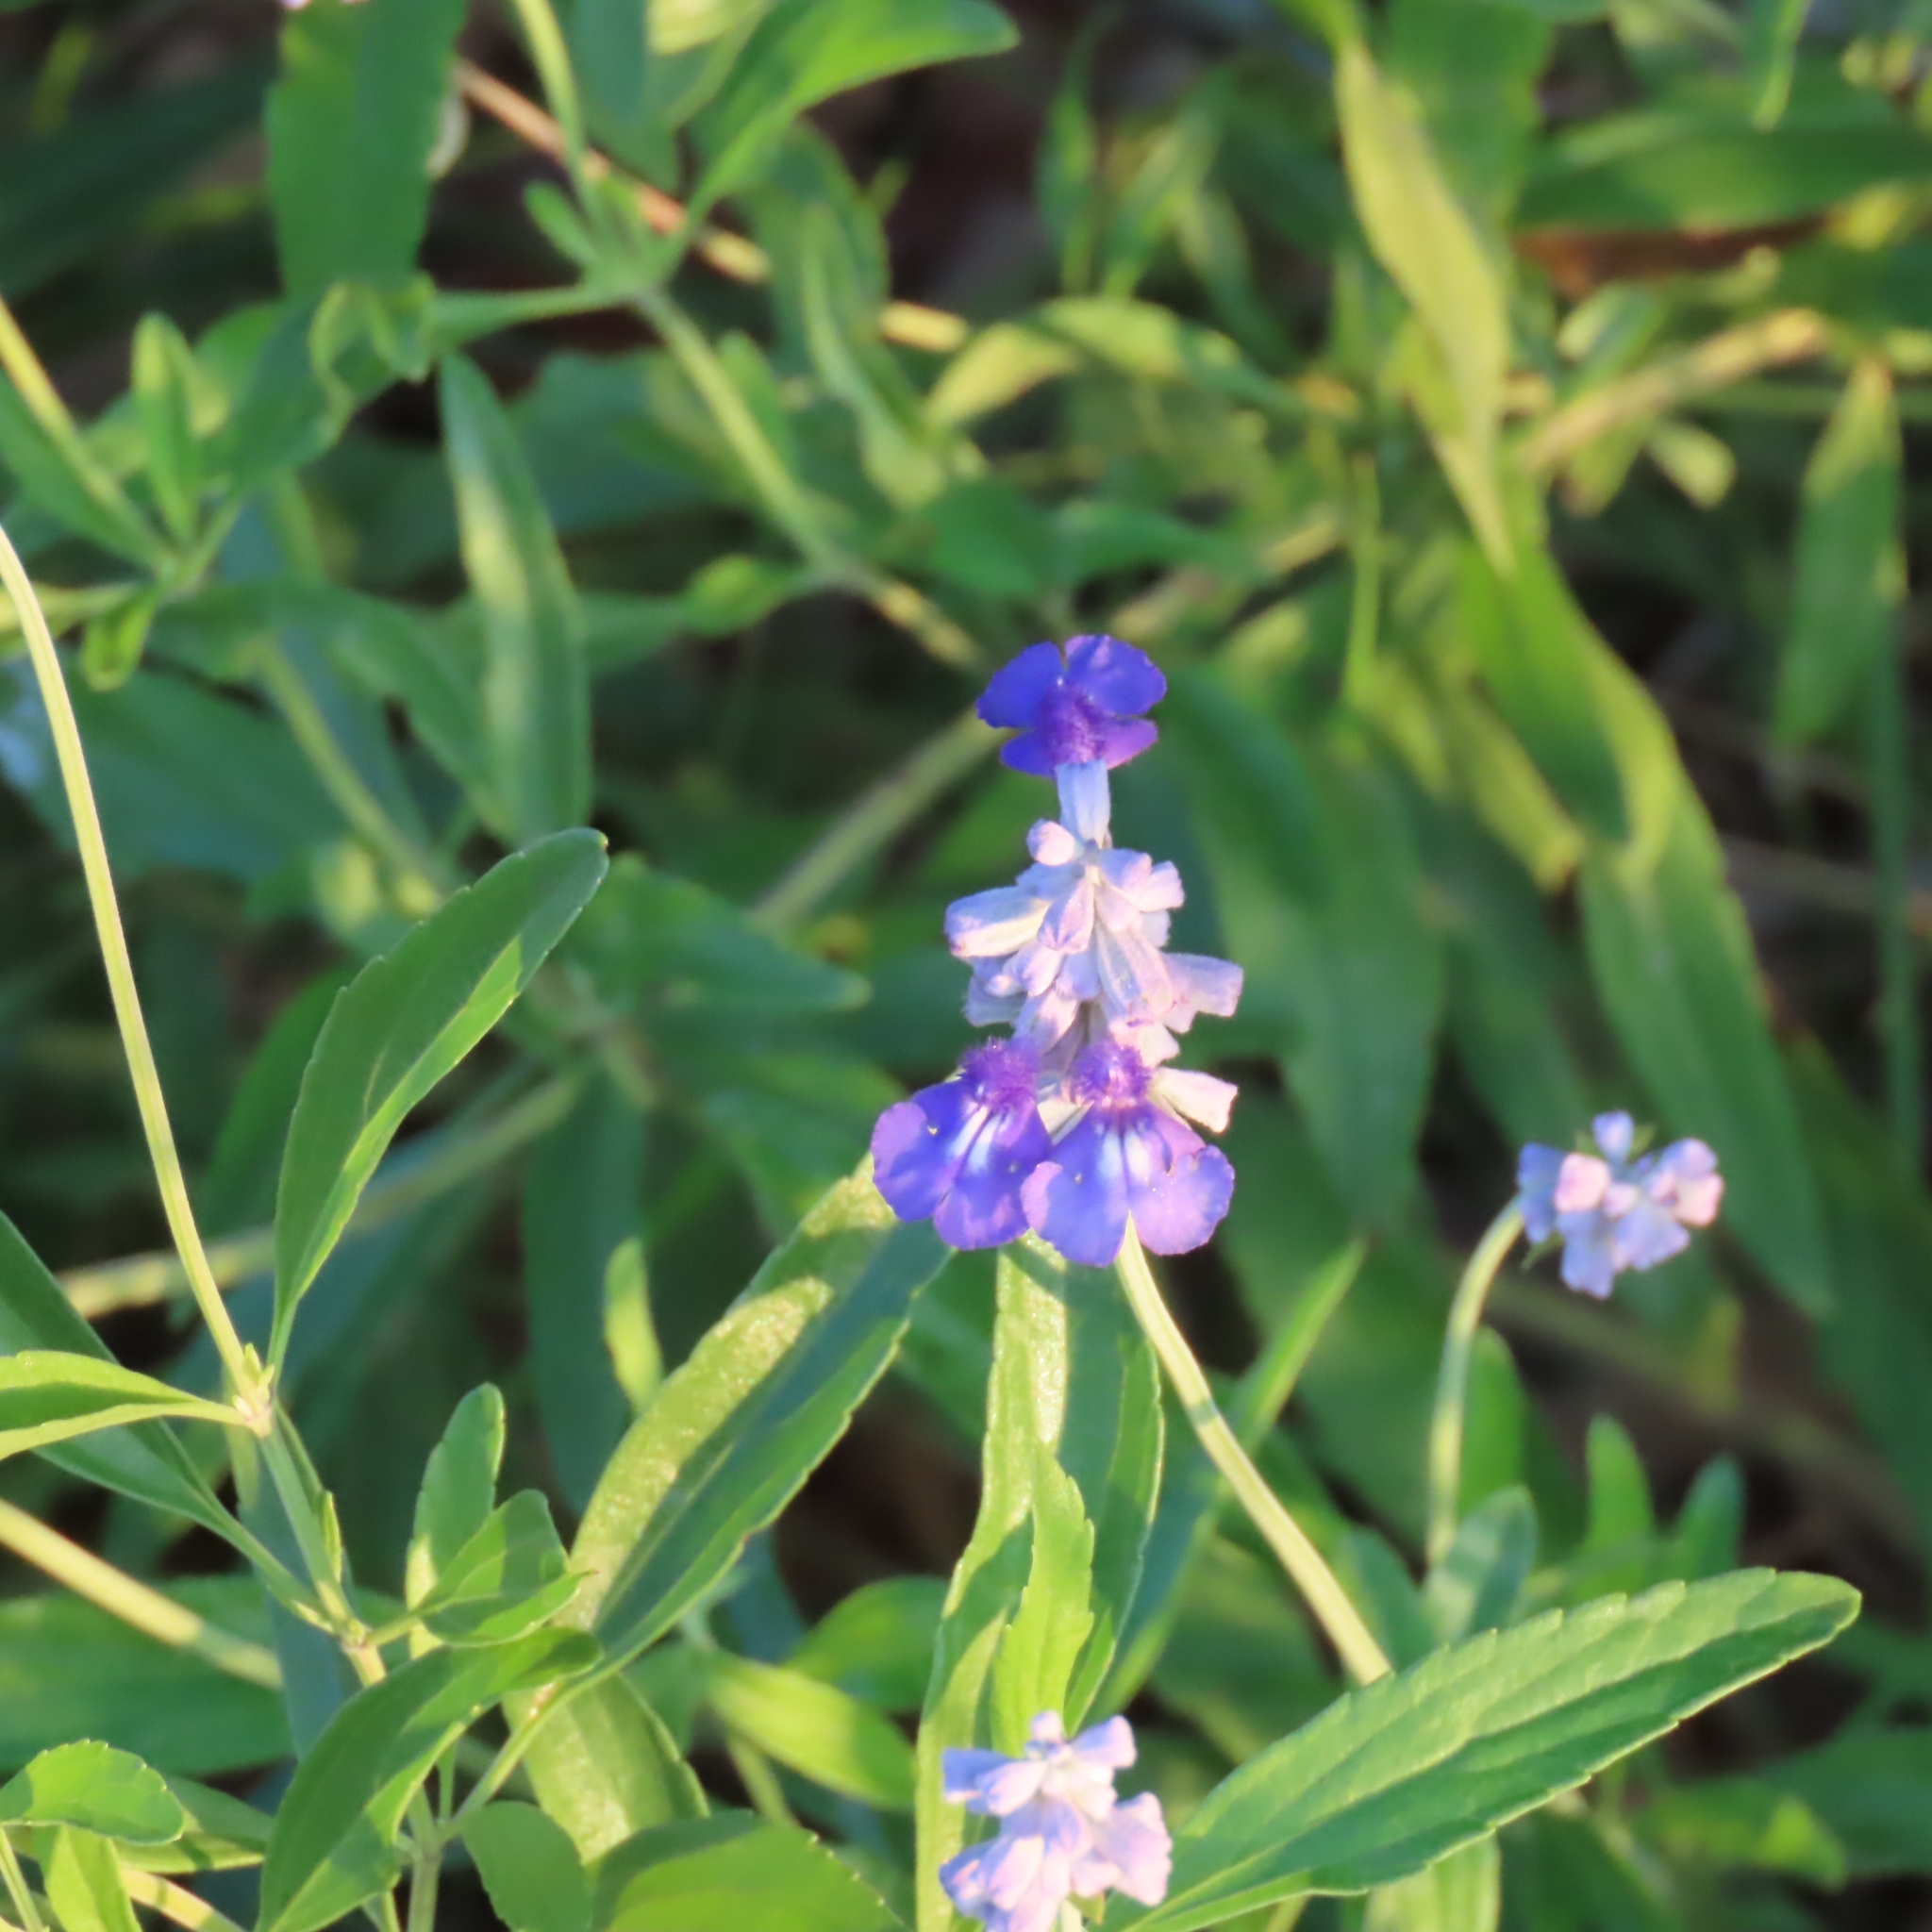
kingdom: Plantae
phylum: Tracheophyta
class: Magnoliopsida
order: Lamiales
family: Lamiaceae
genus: Salvia
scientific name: Salvia farinacea
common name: Mealy sage
